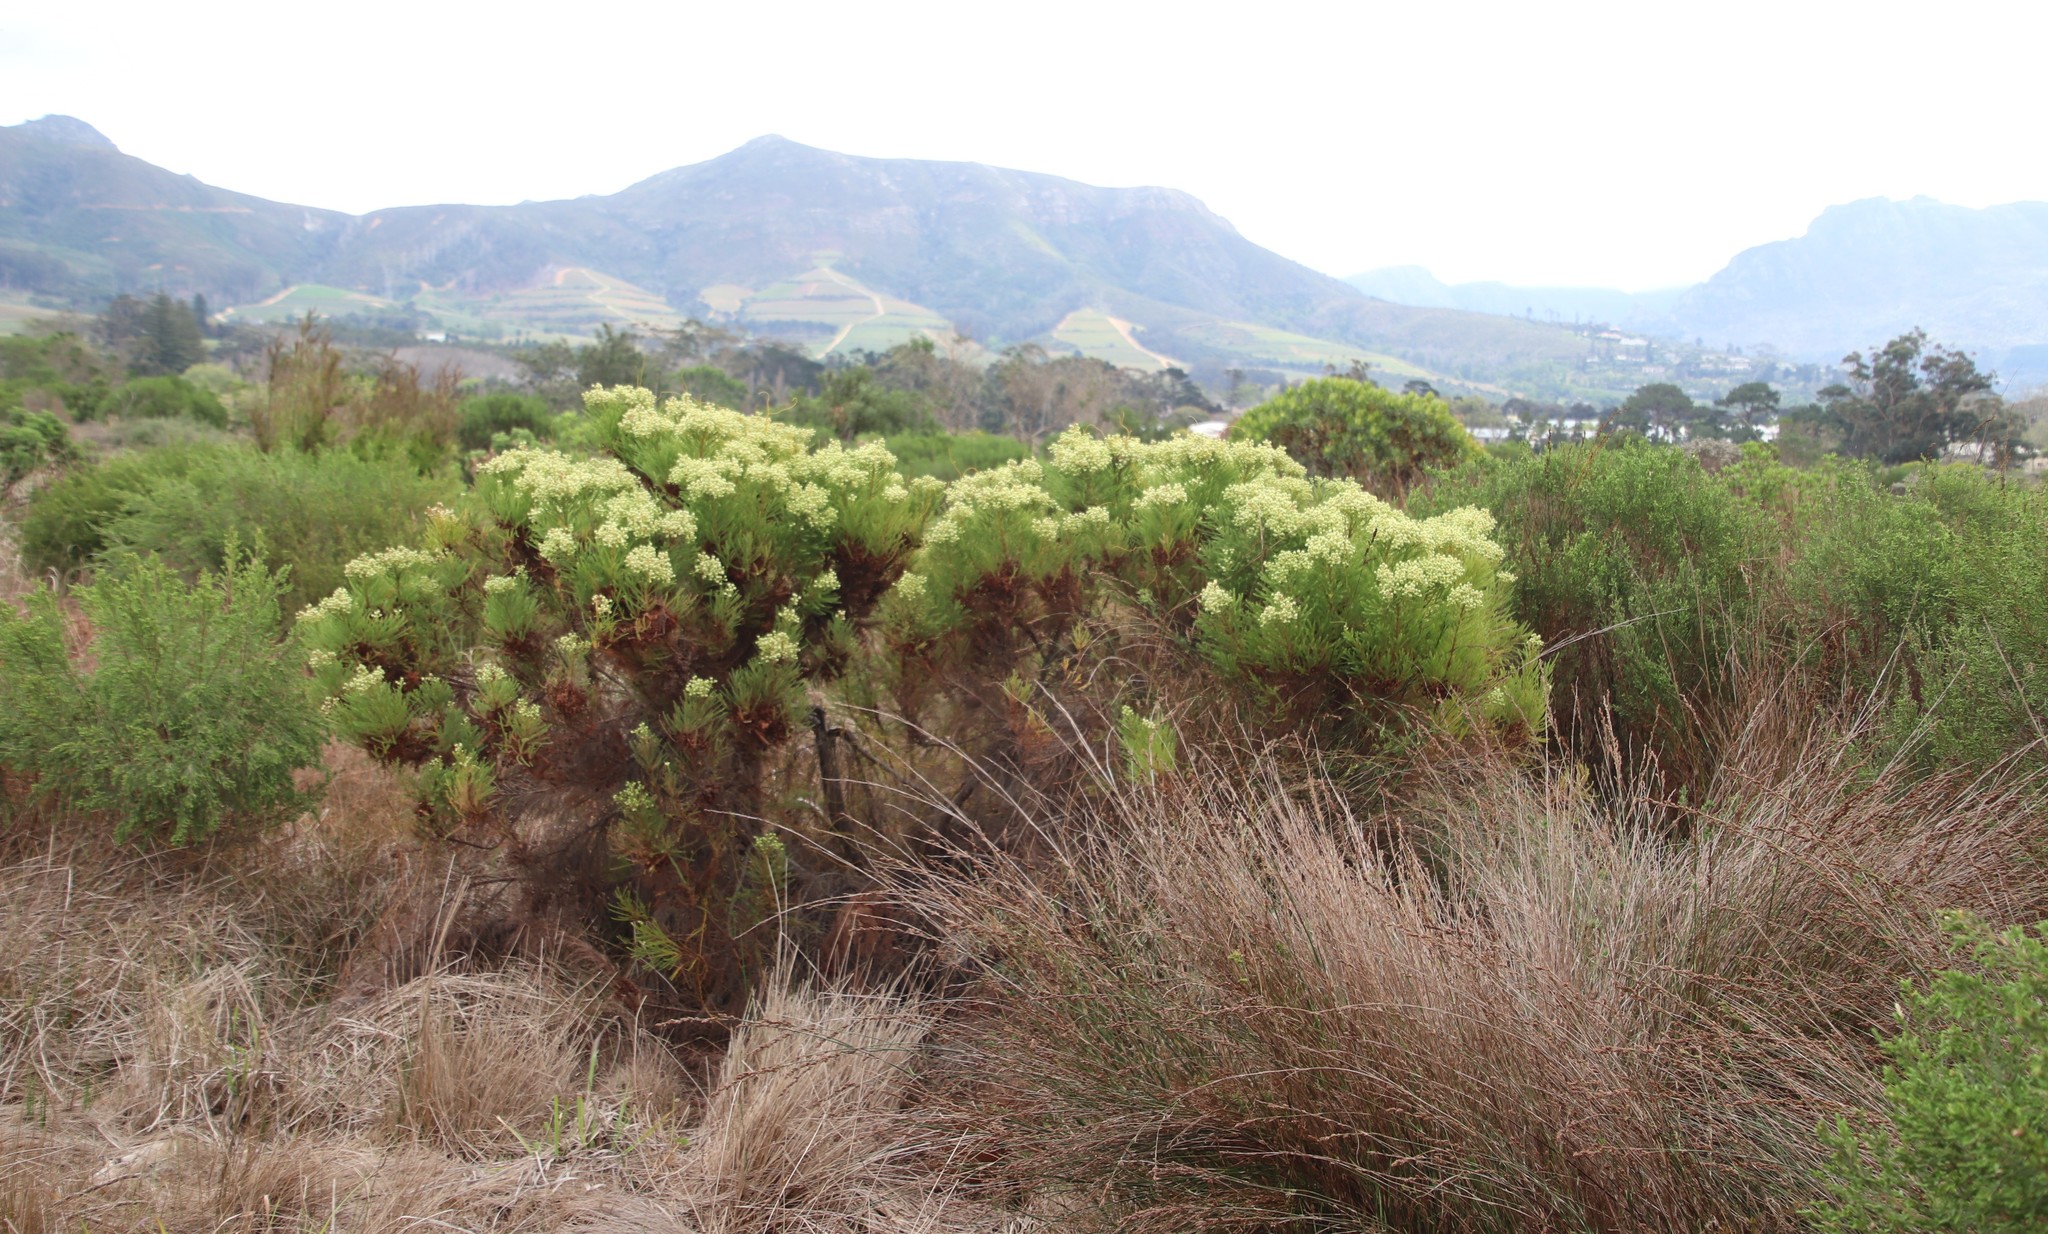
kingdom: Plantae
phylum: Tracheophyta
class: Magnoliopsida
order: Bruniales
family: Bruniaceae
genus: Berzelia
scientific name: Berzelia lanuginosa
